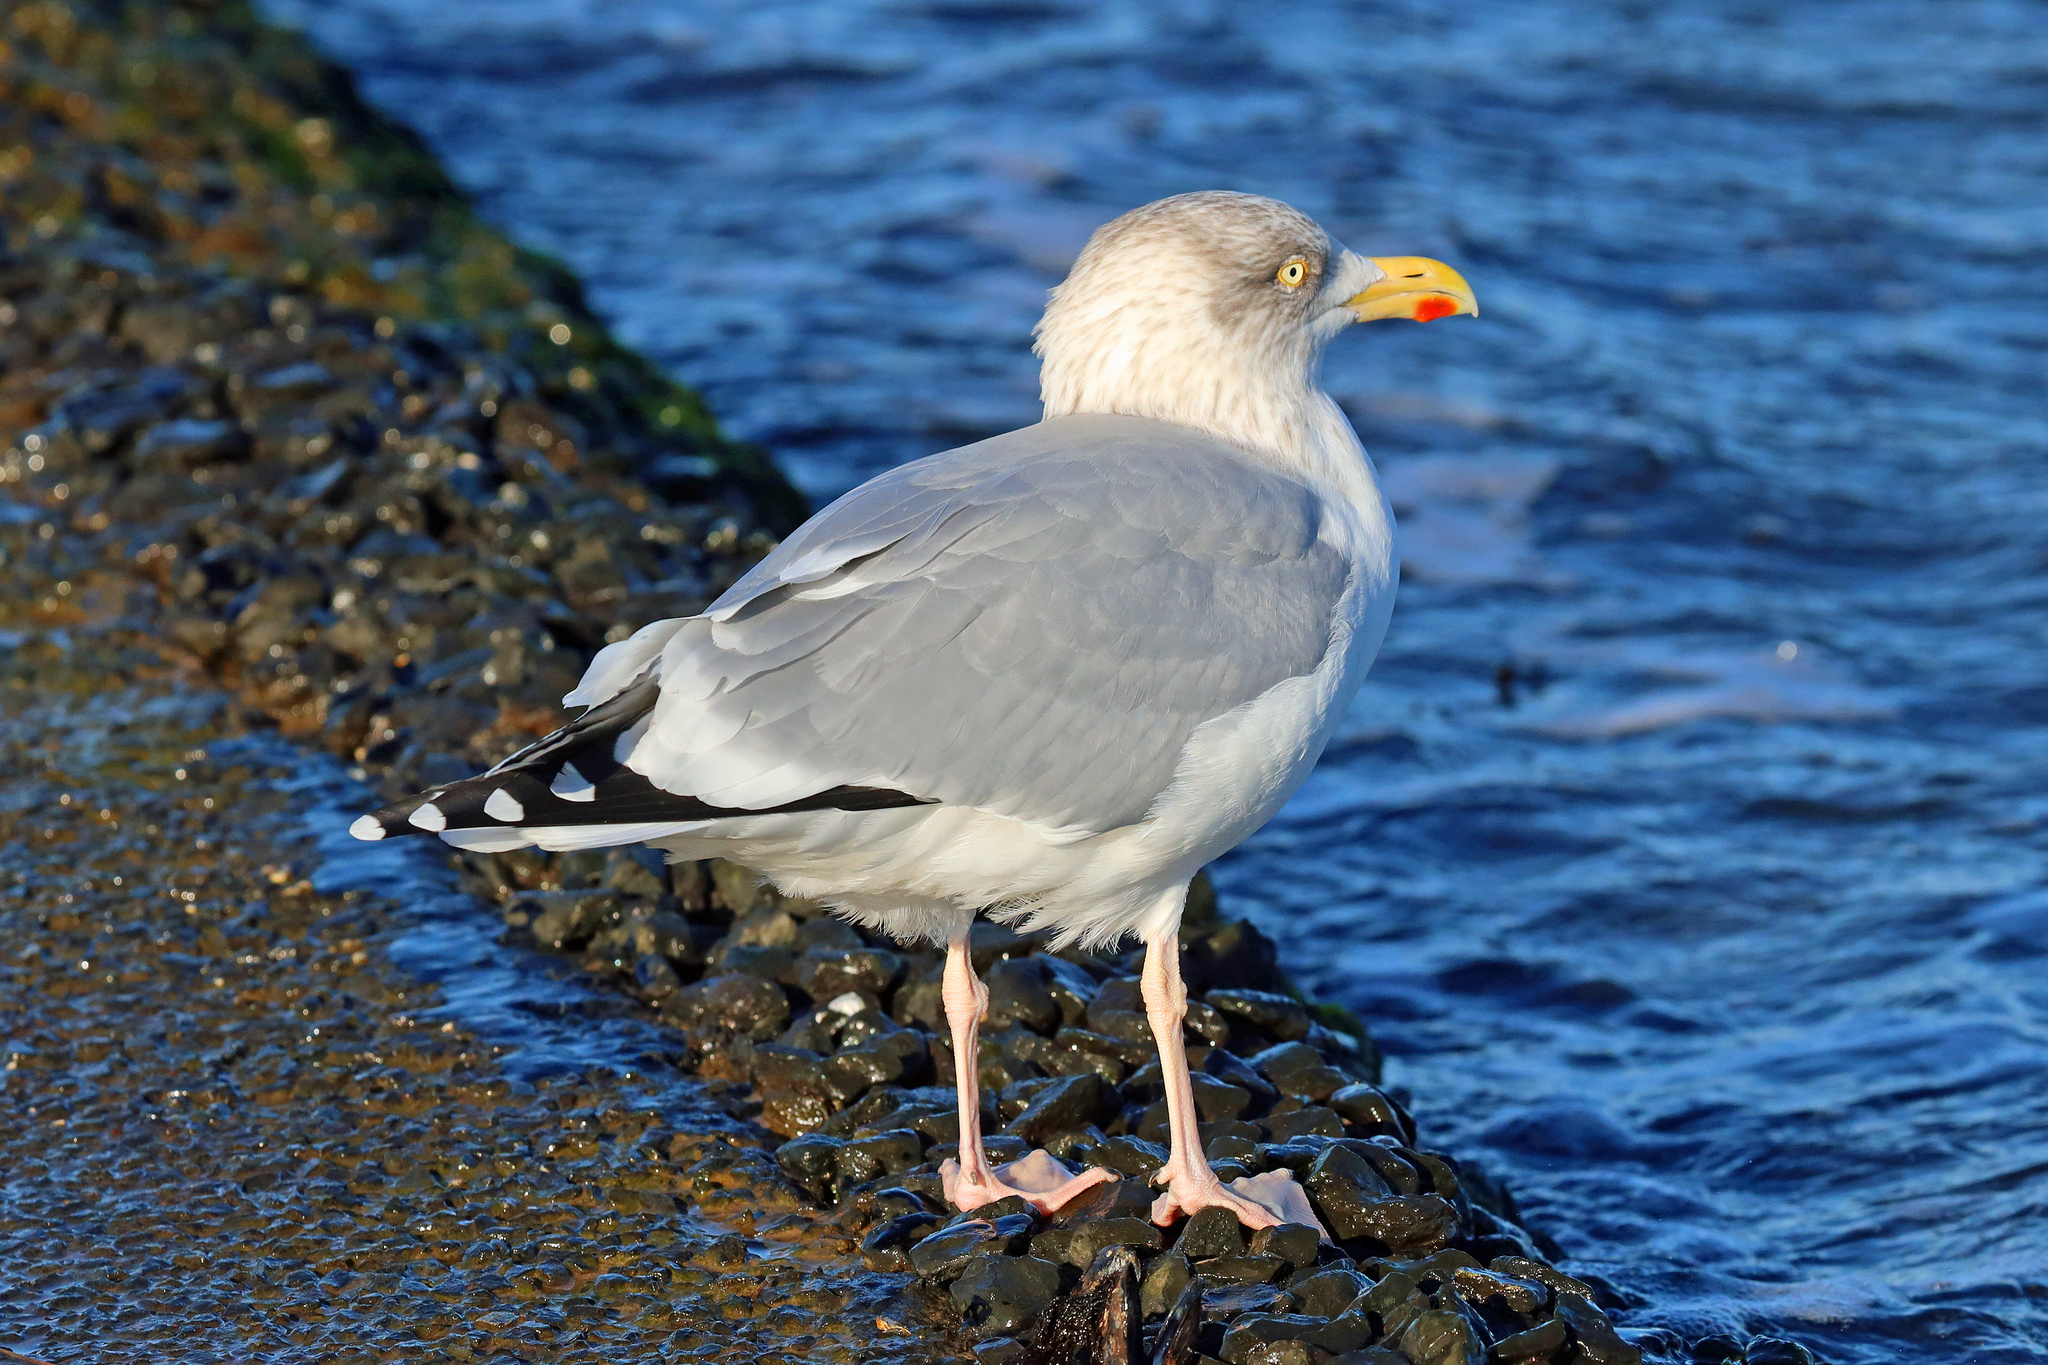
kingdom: Animalia
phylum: Chordata
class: Aves
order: Charadriiformes
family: Laridae
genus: Larus
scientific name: Larus argentatus
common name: Herring gull
